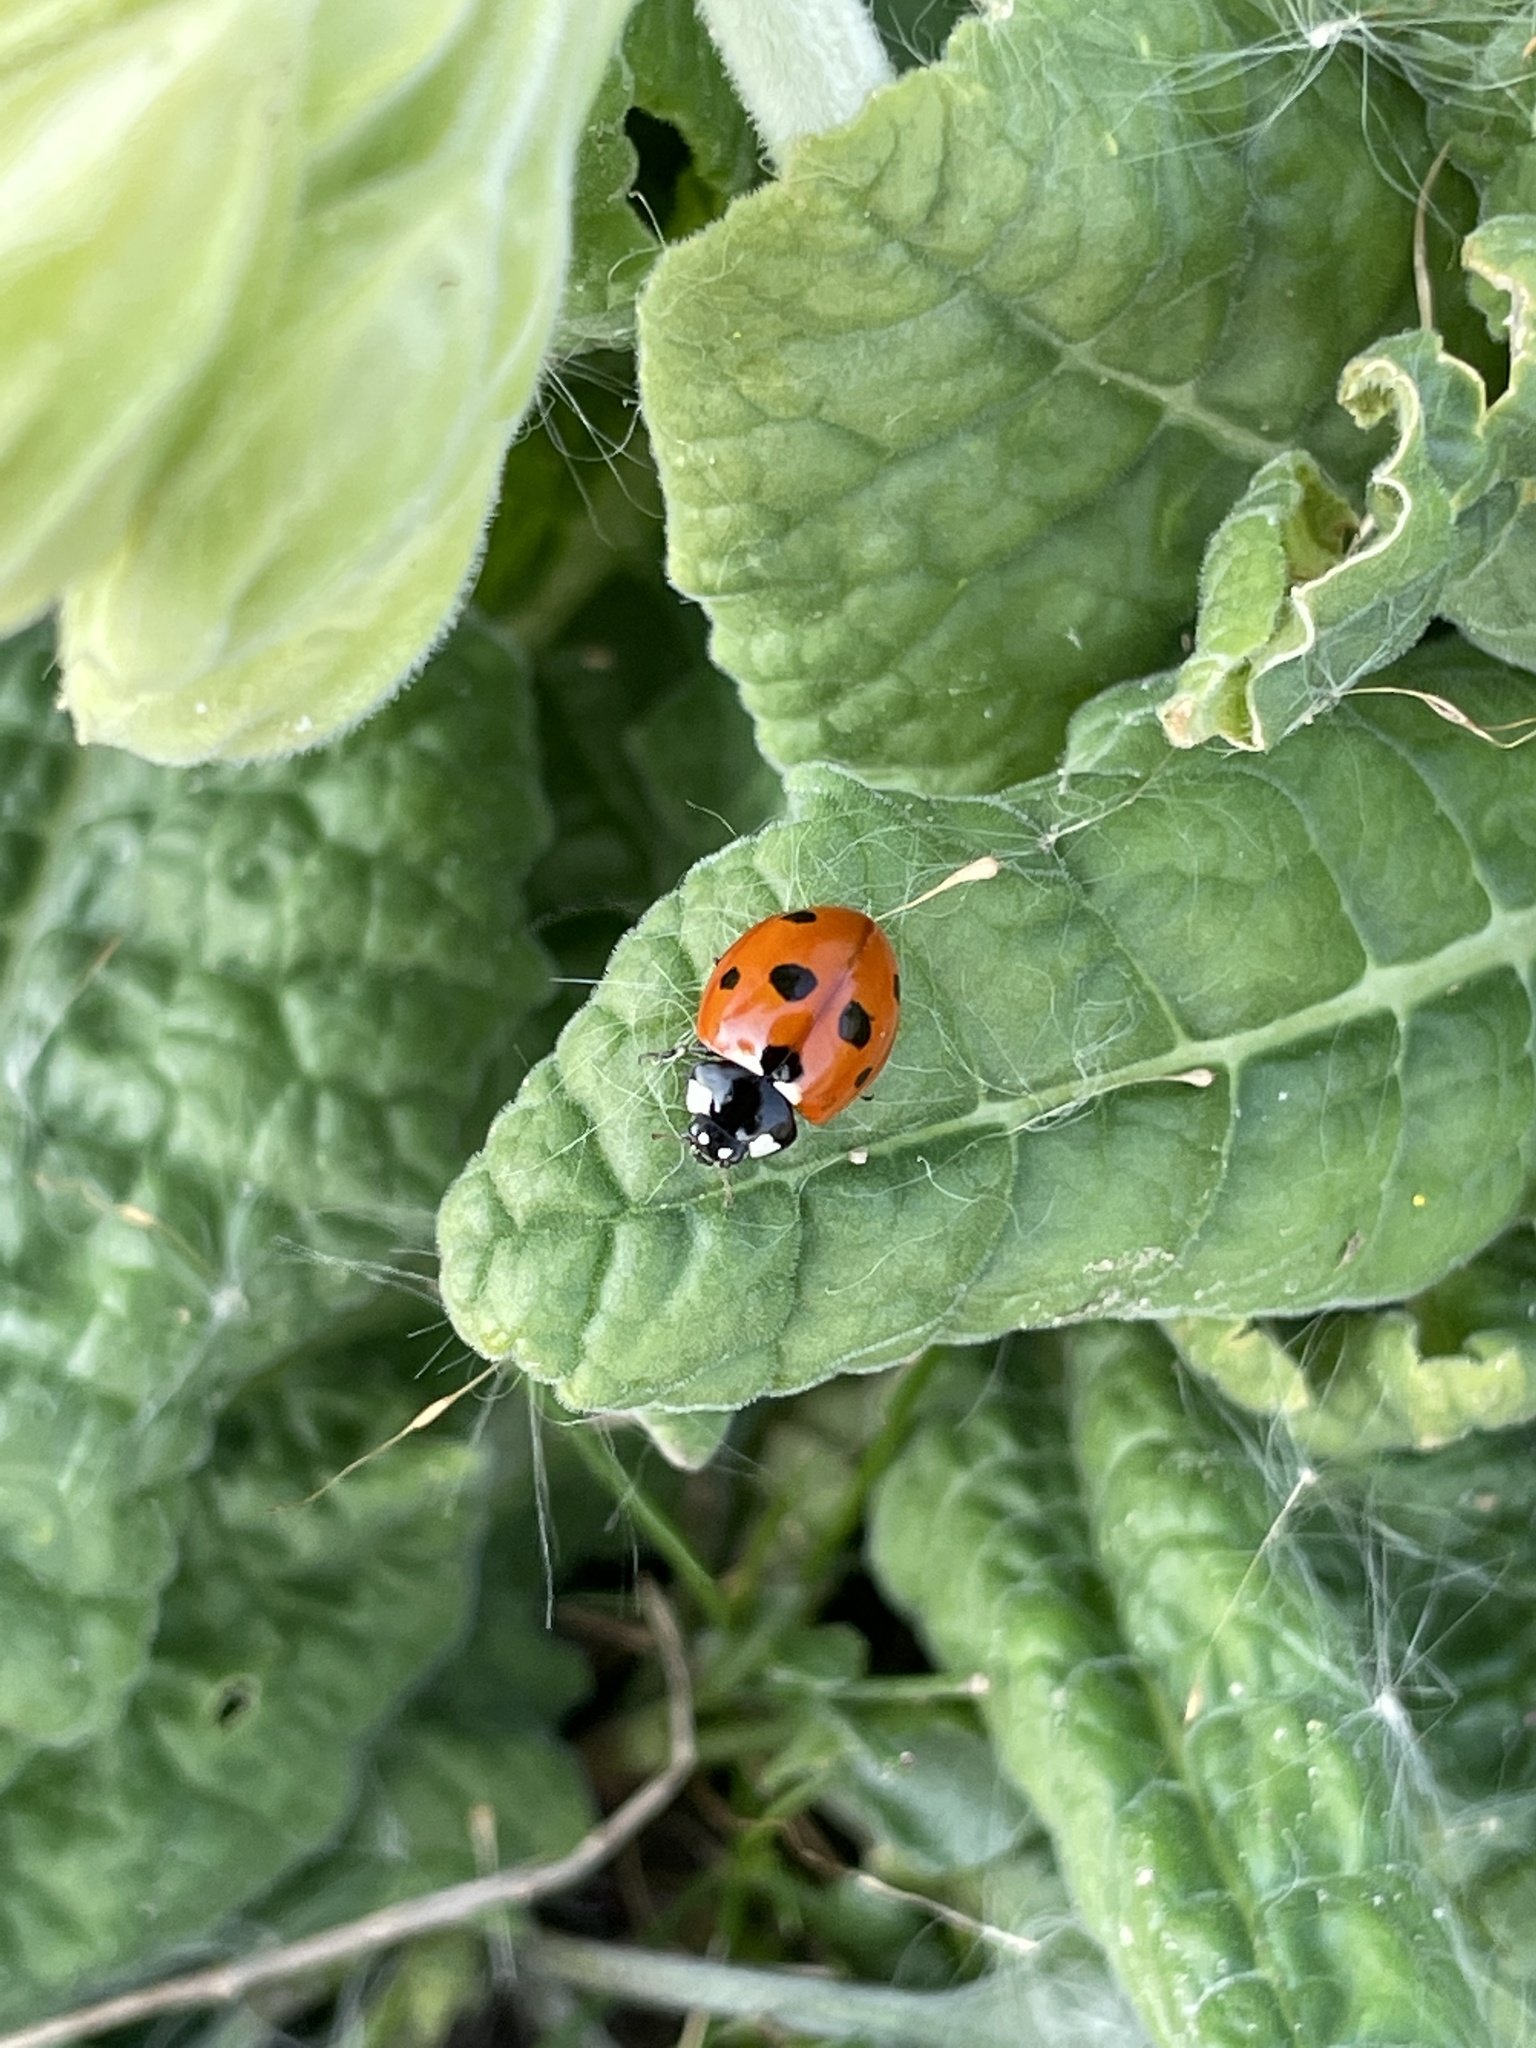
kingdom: Animalia
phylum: Arthropoda
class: Insecta
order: Coleoptera
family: Coccinellidae
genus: Coccinella
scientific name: Coccinella septempunctata
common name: Sevenspotted lady beetle
